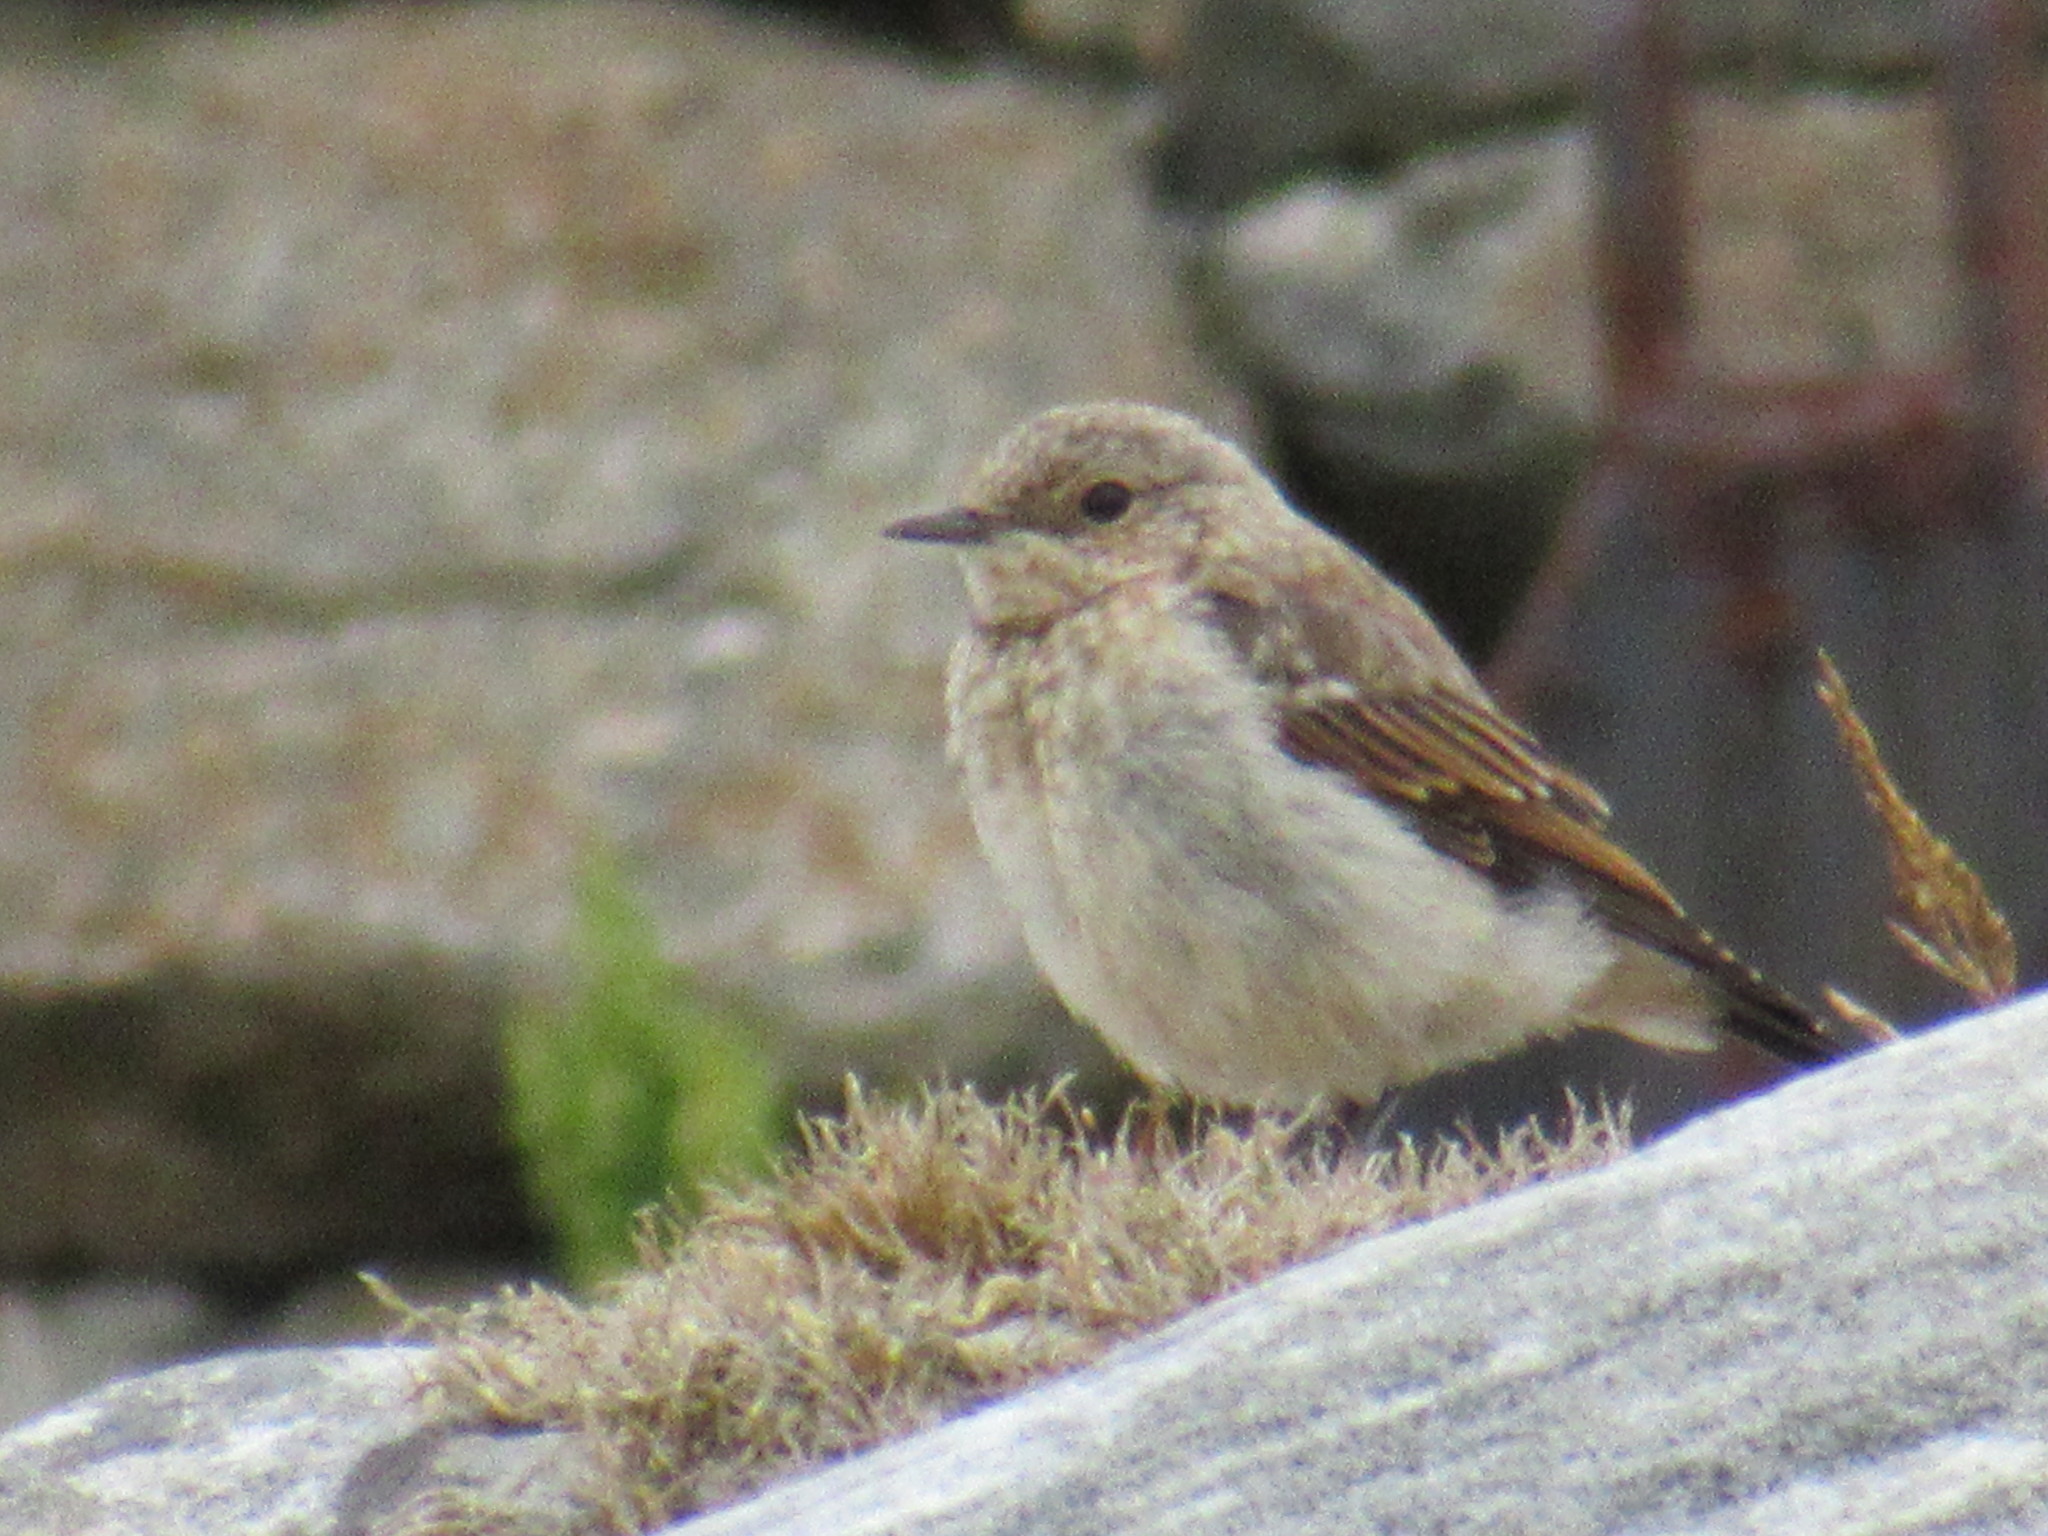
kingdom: Animalia
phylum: Chordata
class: Aves
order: Passeriformes
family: Muscicapidae
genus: Oenanthe
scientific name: Oenanthe oenanthe
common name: Northern wheatear
